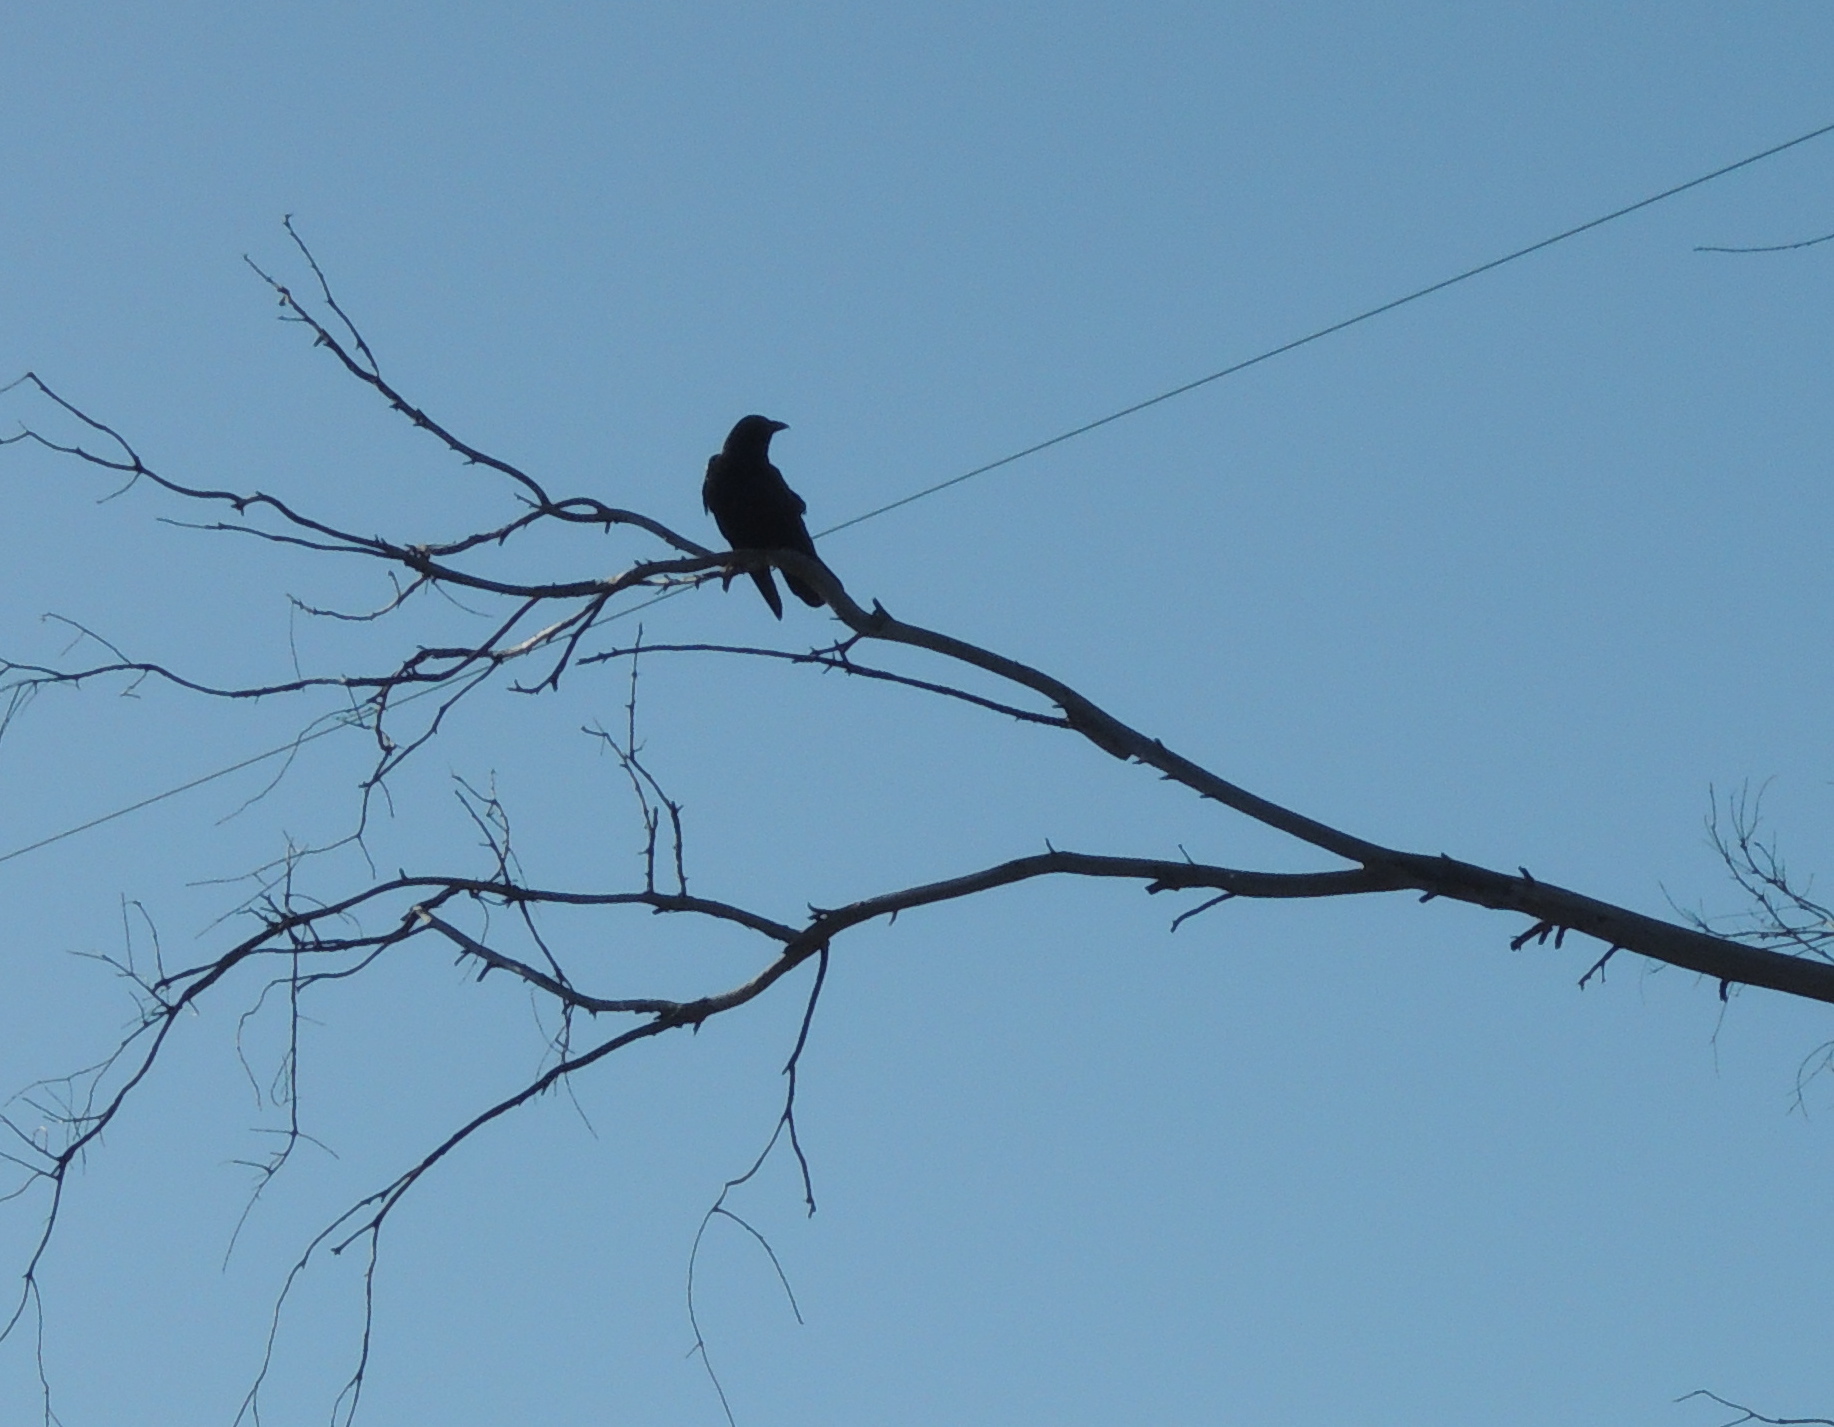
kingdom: Animalia
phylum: Chordata
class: Aves
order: Passeriformes
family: Corvidae
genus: Corvus
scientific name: Corvus brachyrhynchos
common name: American crow
